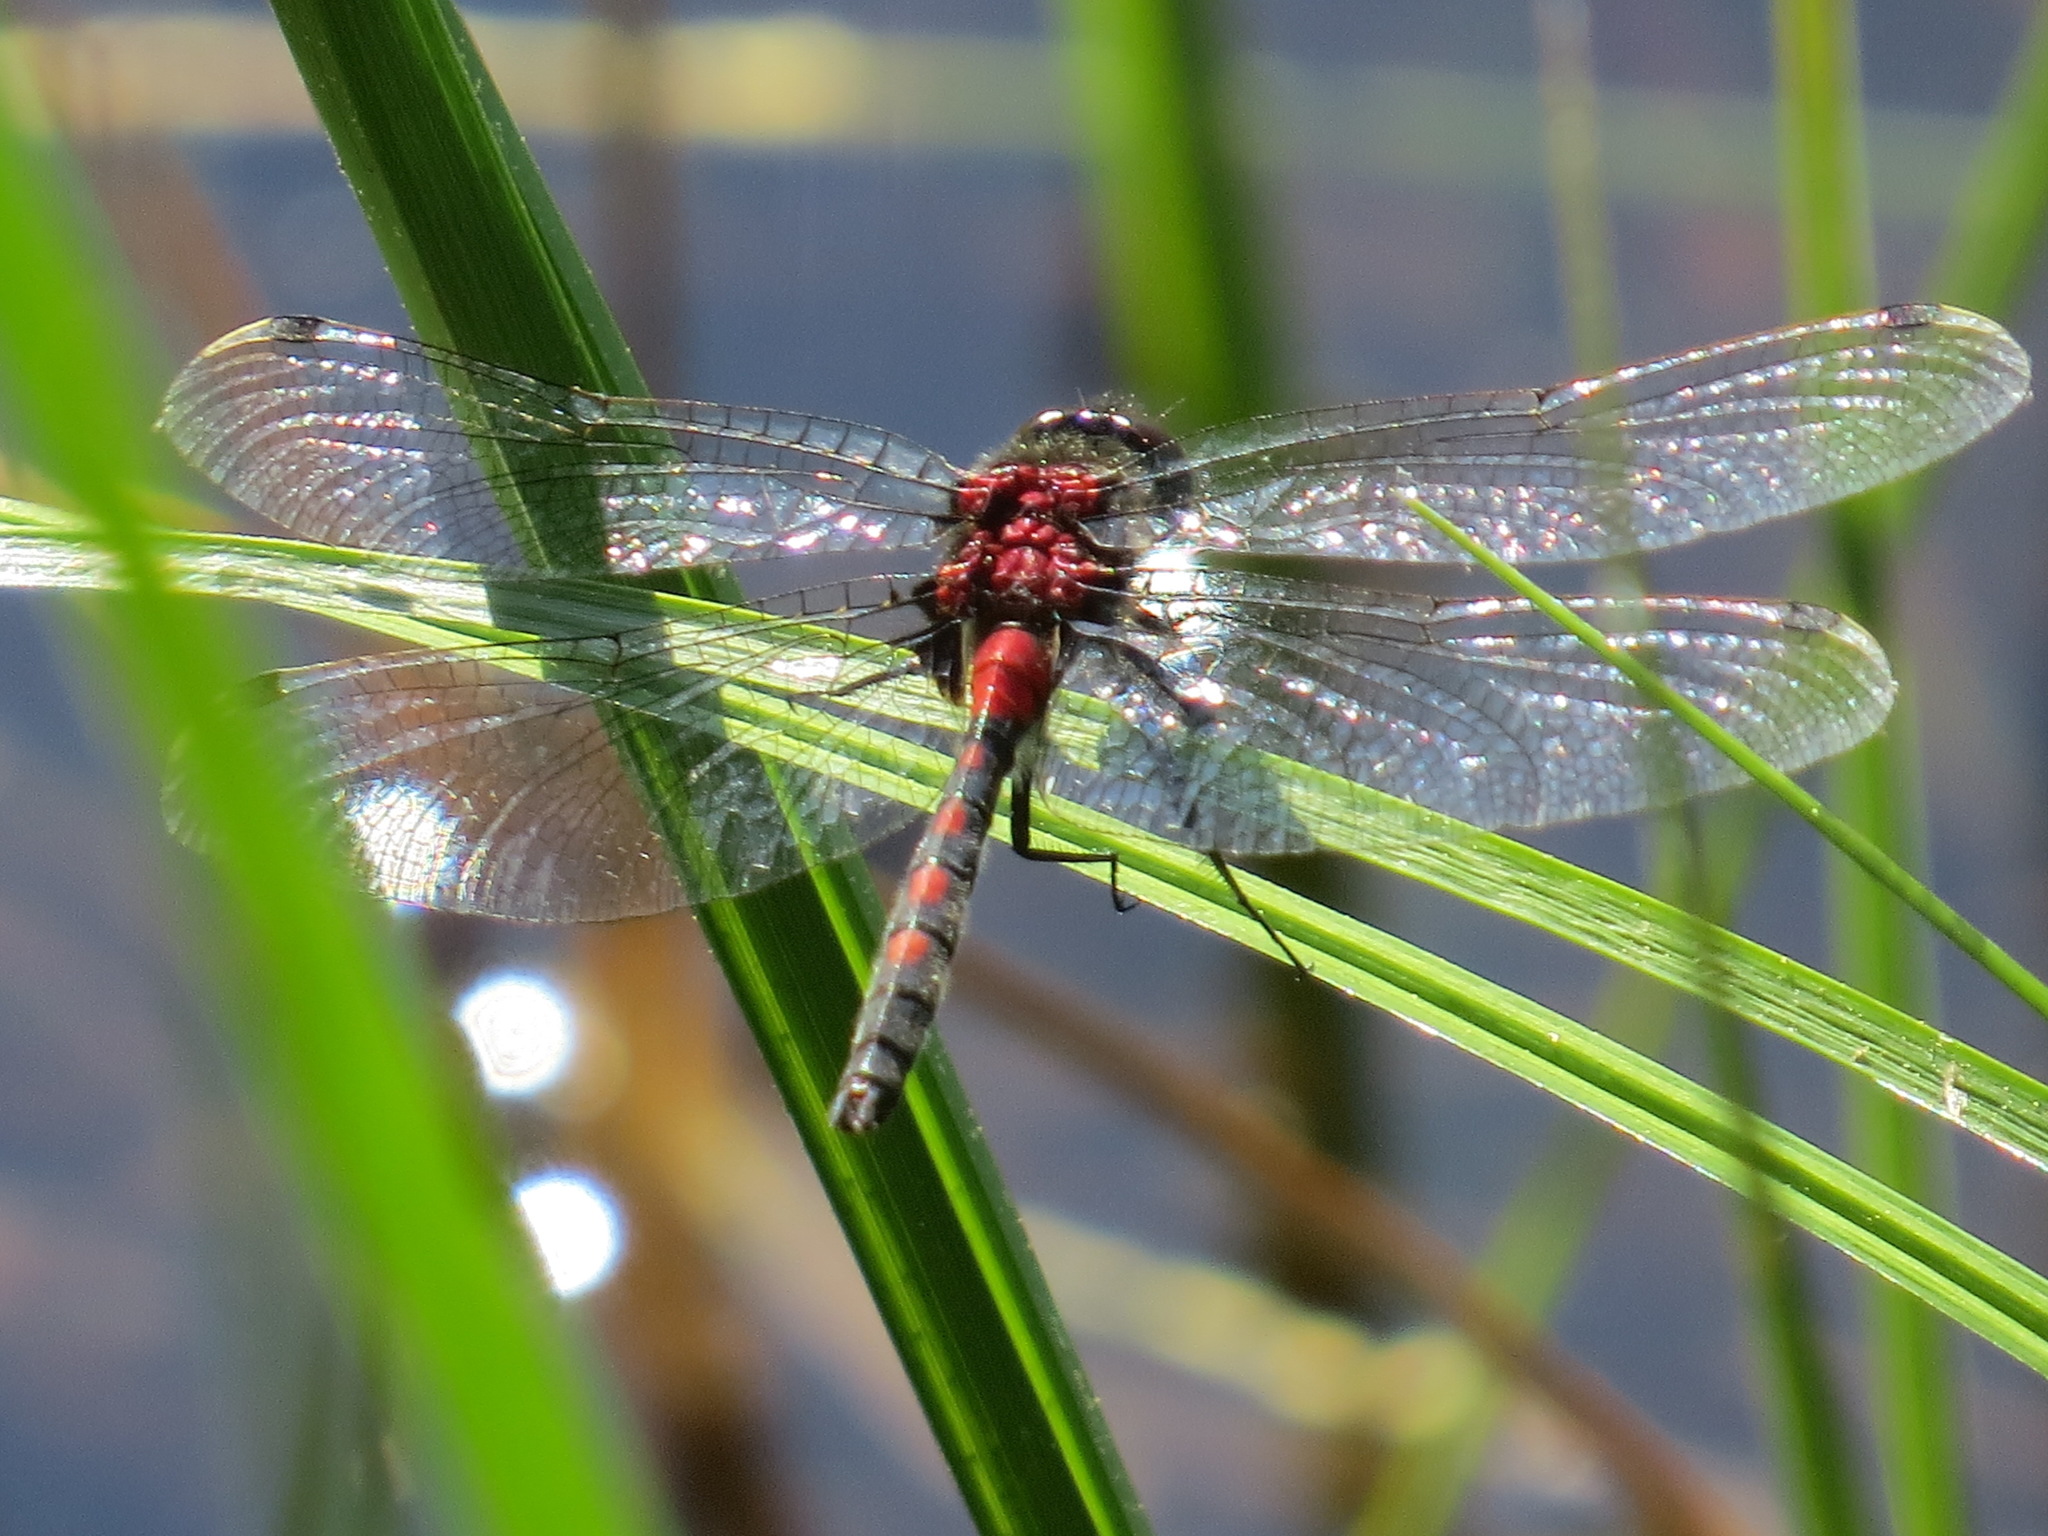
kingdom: Animalia
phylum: Arthropoda
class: Insecta
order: Odonata
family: Libellulidae
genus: Leucorrhinia
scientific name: Leucorrhinia hudsonica
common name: Hudsonian whiteface
